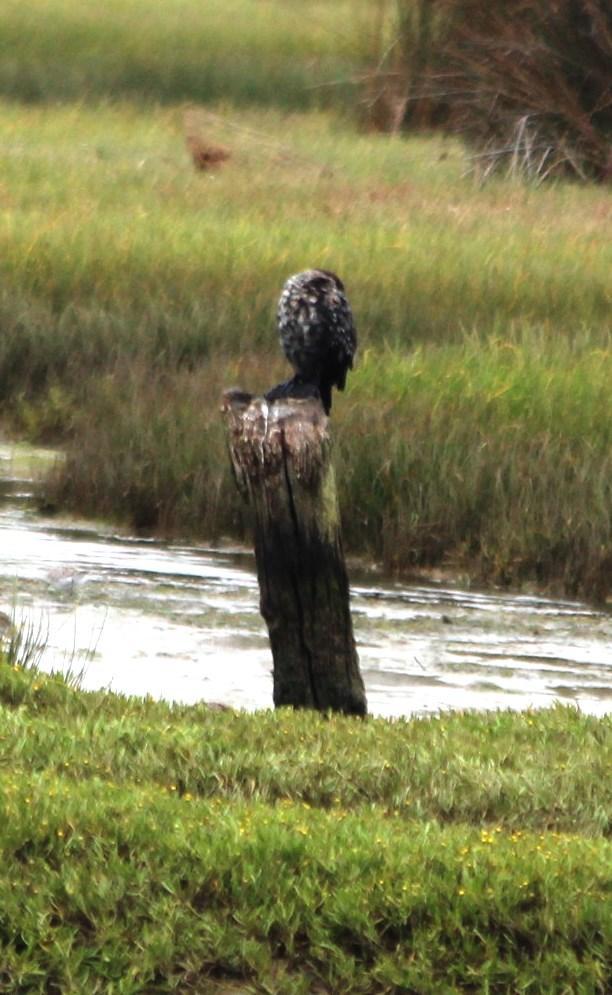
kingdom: Animalia
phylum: Chordata
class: Aves
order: Suliformes
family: Phalacrocoracidae
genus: Microcarbo
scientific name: Microcarbo africanus
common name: Long-tailed cormorant
